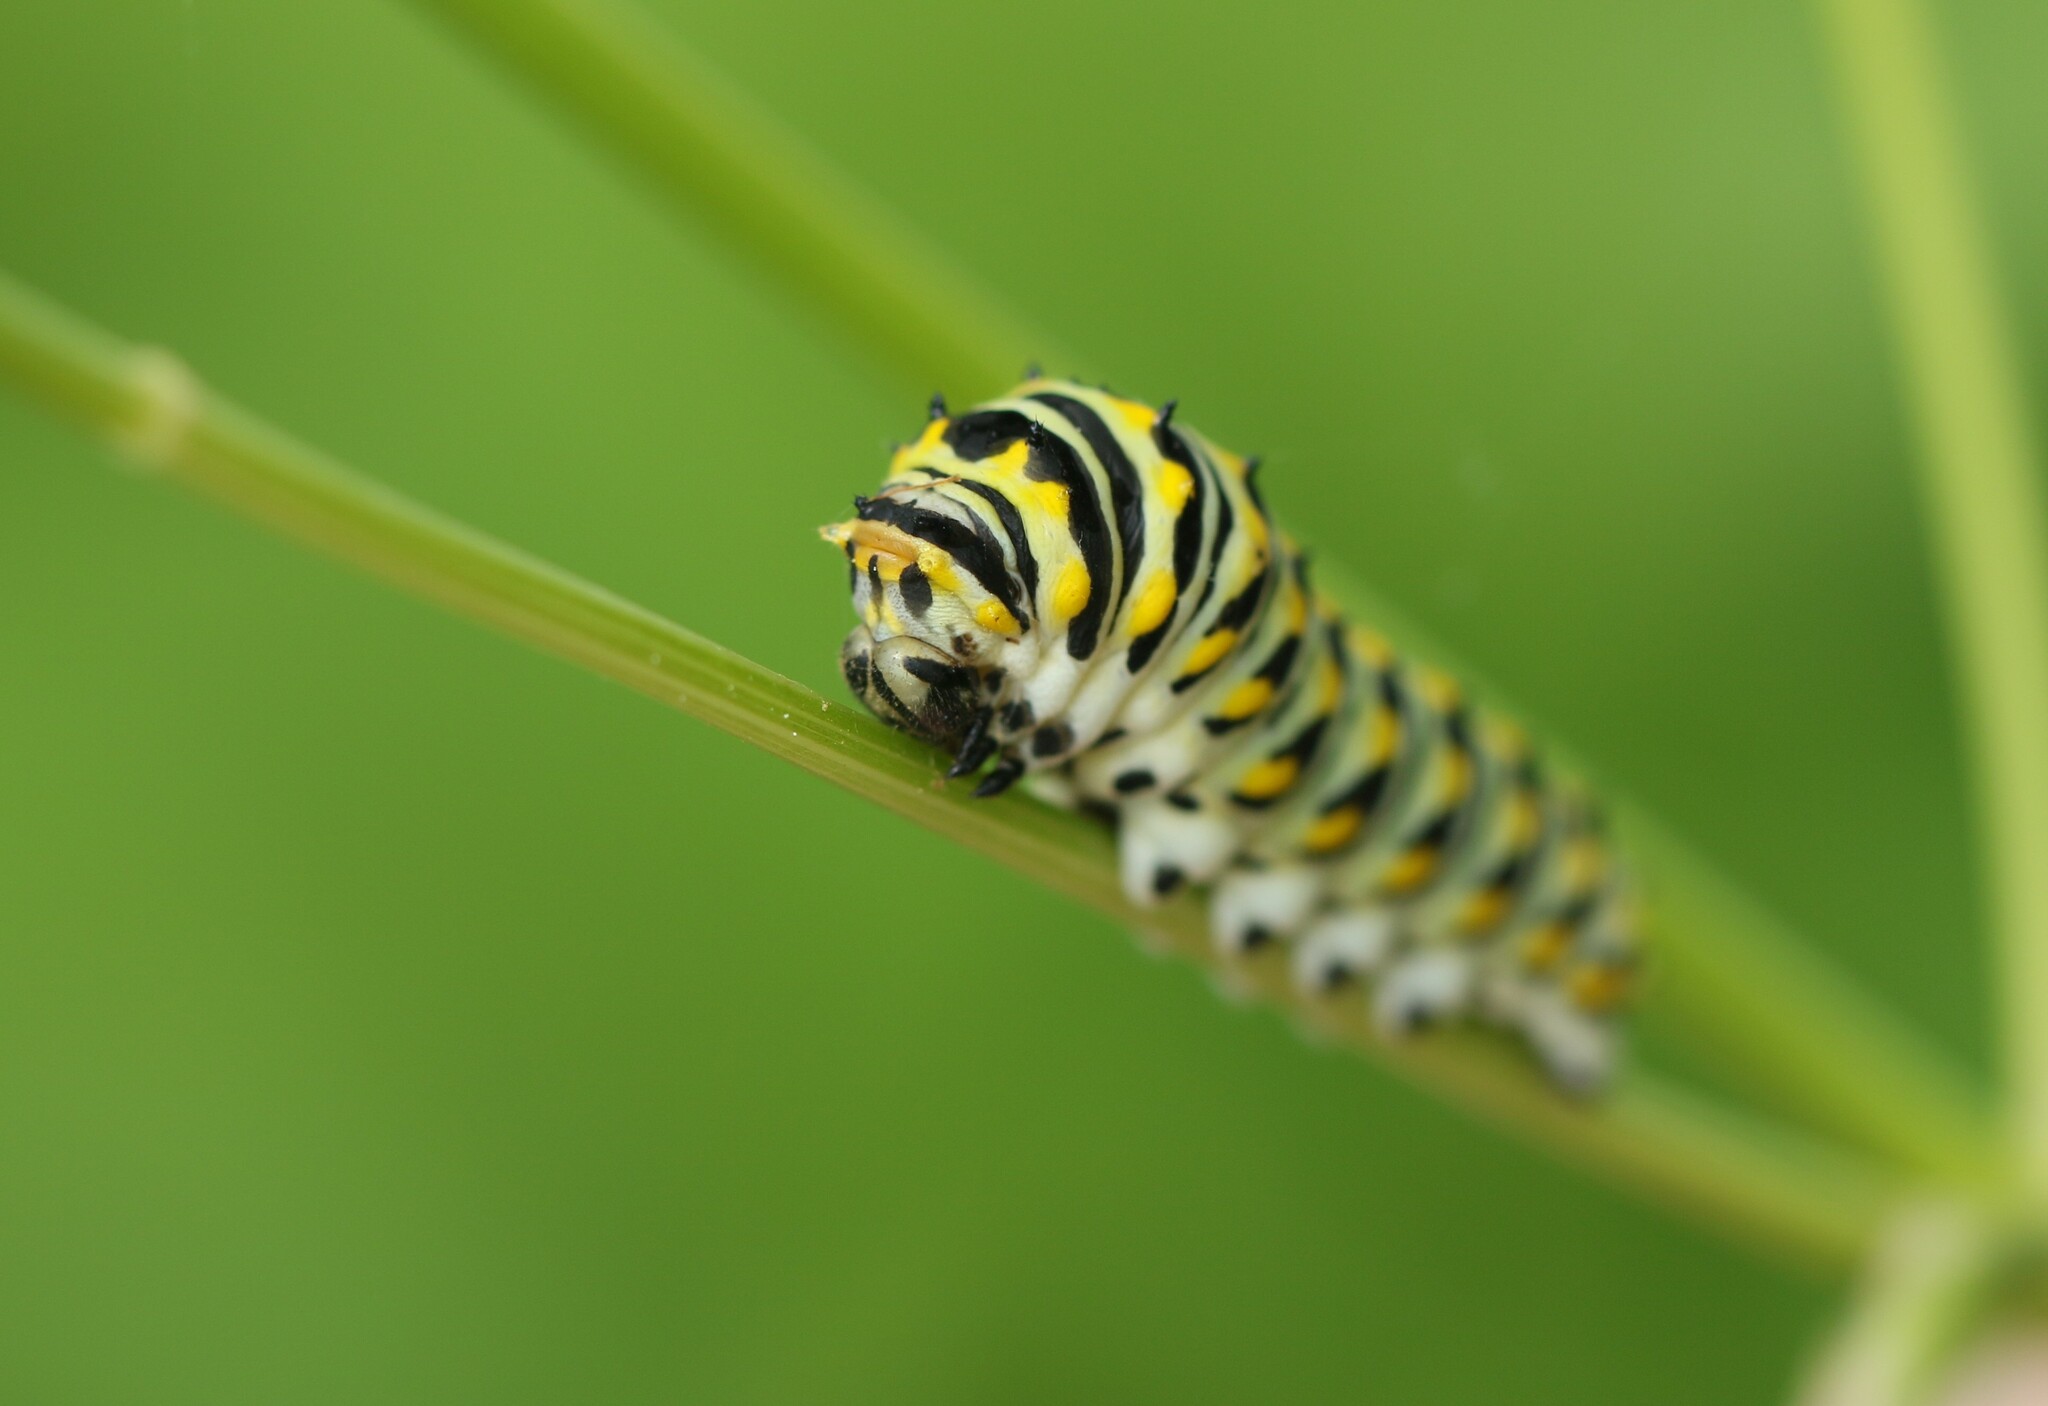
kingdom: Animalia
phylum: Arthropoda
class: Insecta
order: Lepidoptera
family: Papilionidae
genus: Papilio
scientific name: Papilio polyxenes
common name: Black swallowtail
